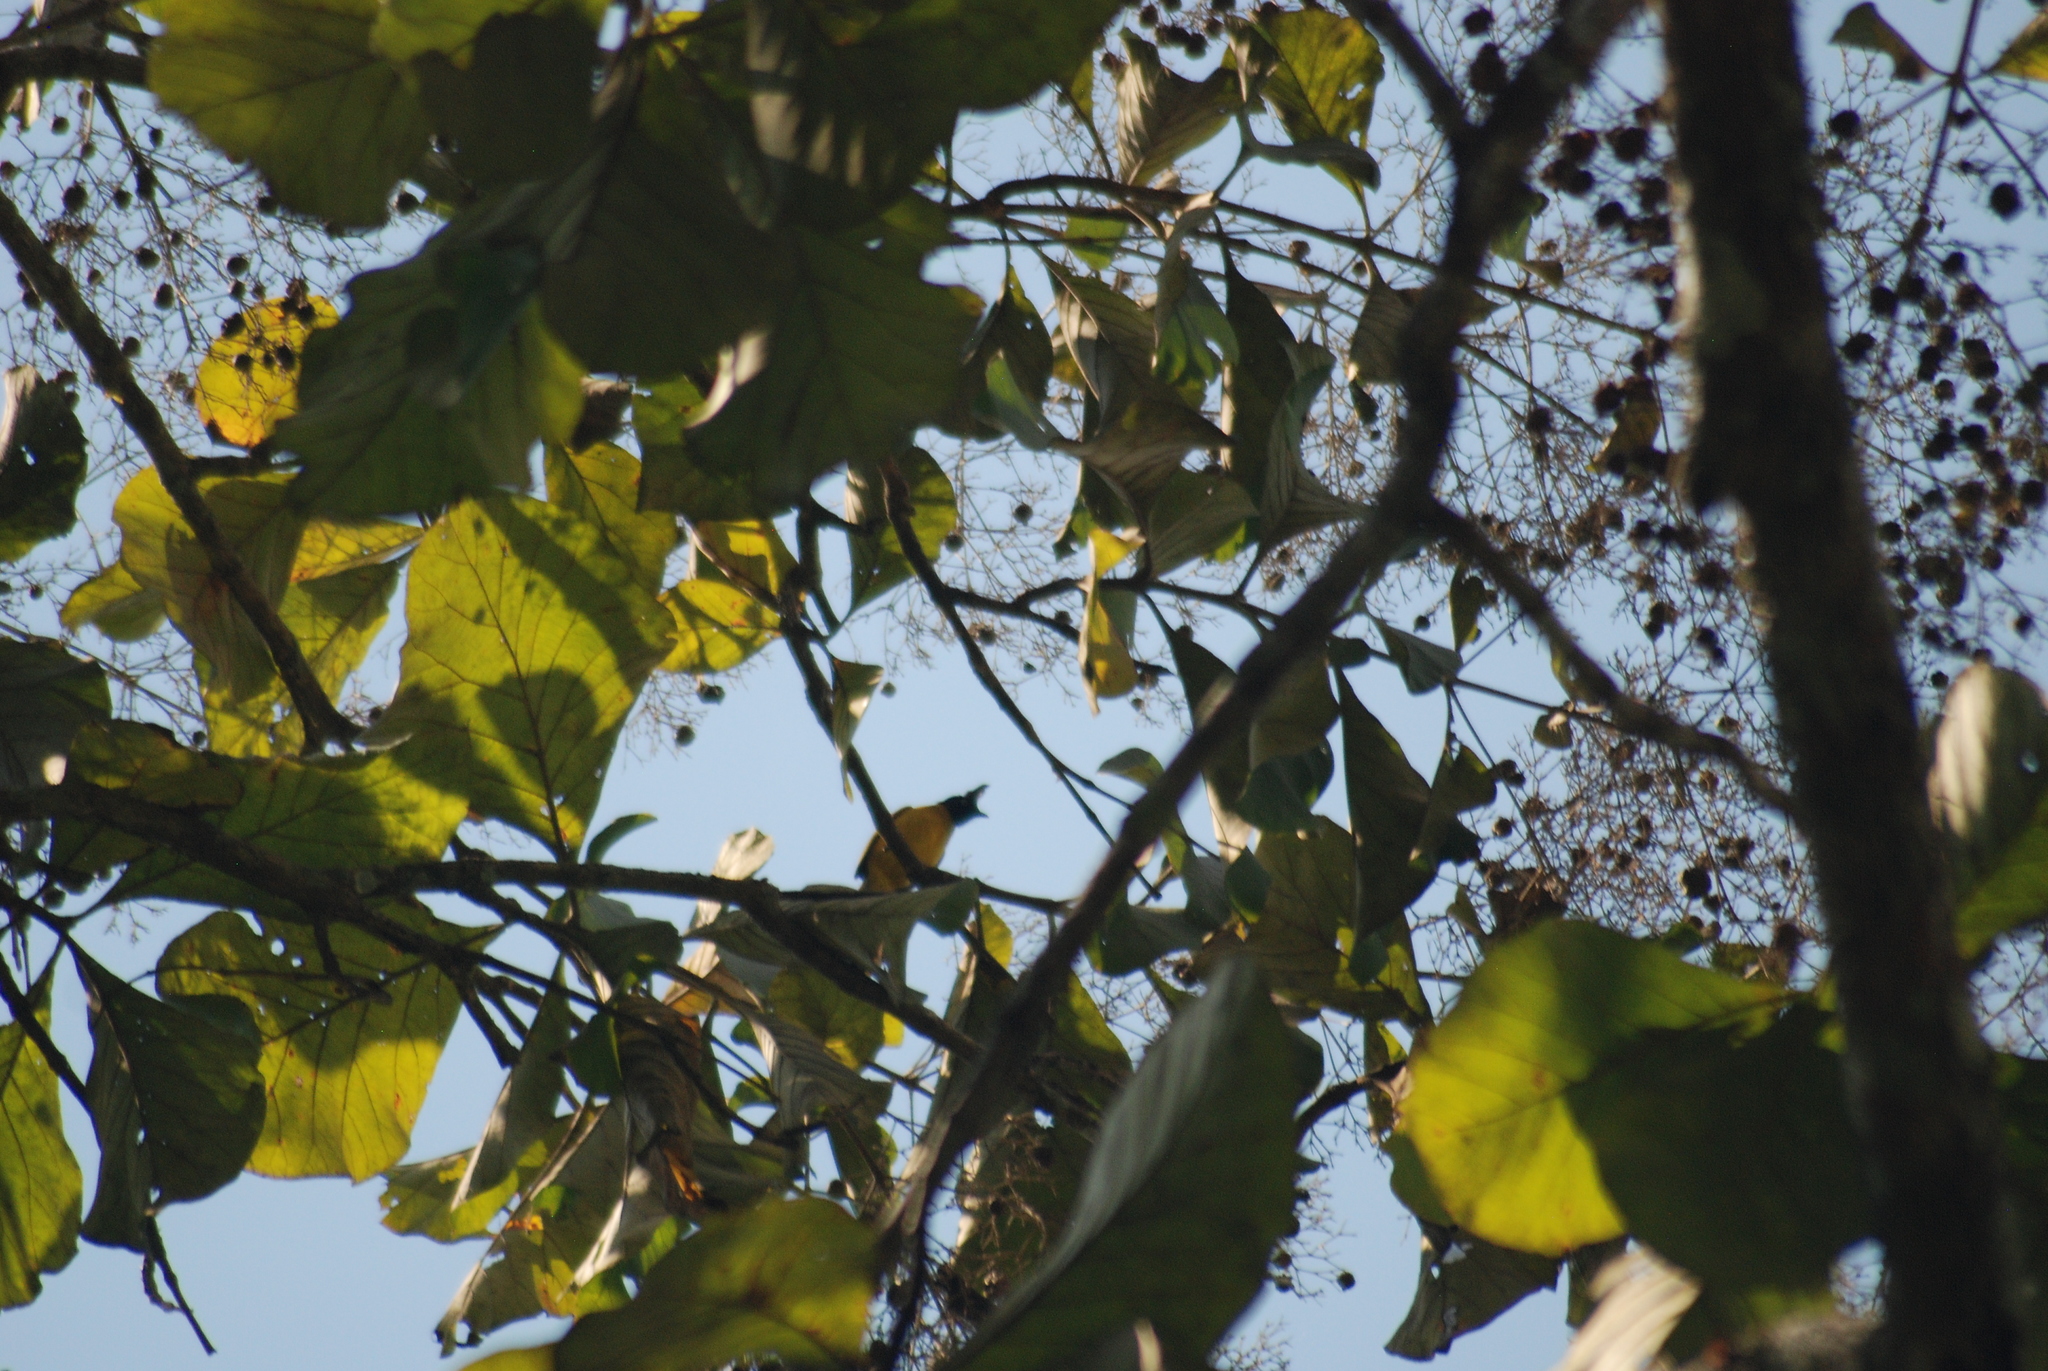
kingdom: Animalia
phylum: Chordata
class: Aves
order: Passeriformes
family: Pycnonotidae
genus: Pycnonotus
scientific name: Pycnonotus flaviventris
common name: Black-crested bulbul
